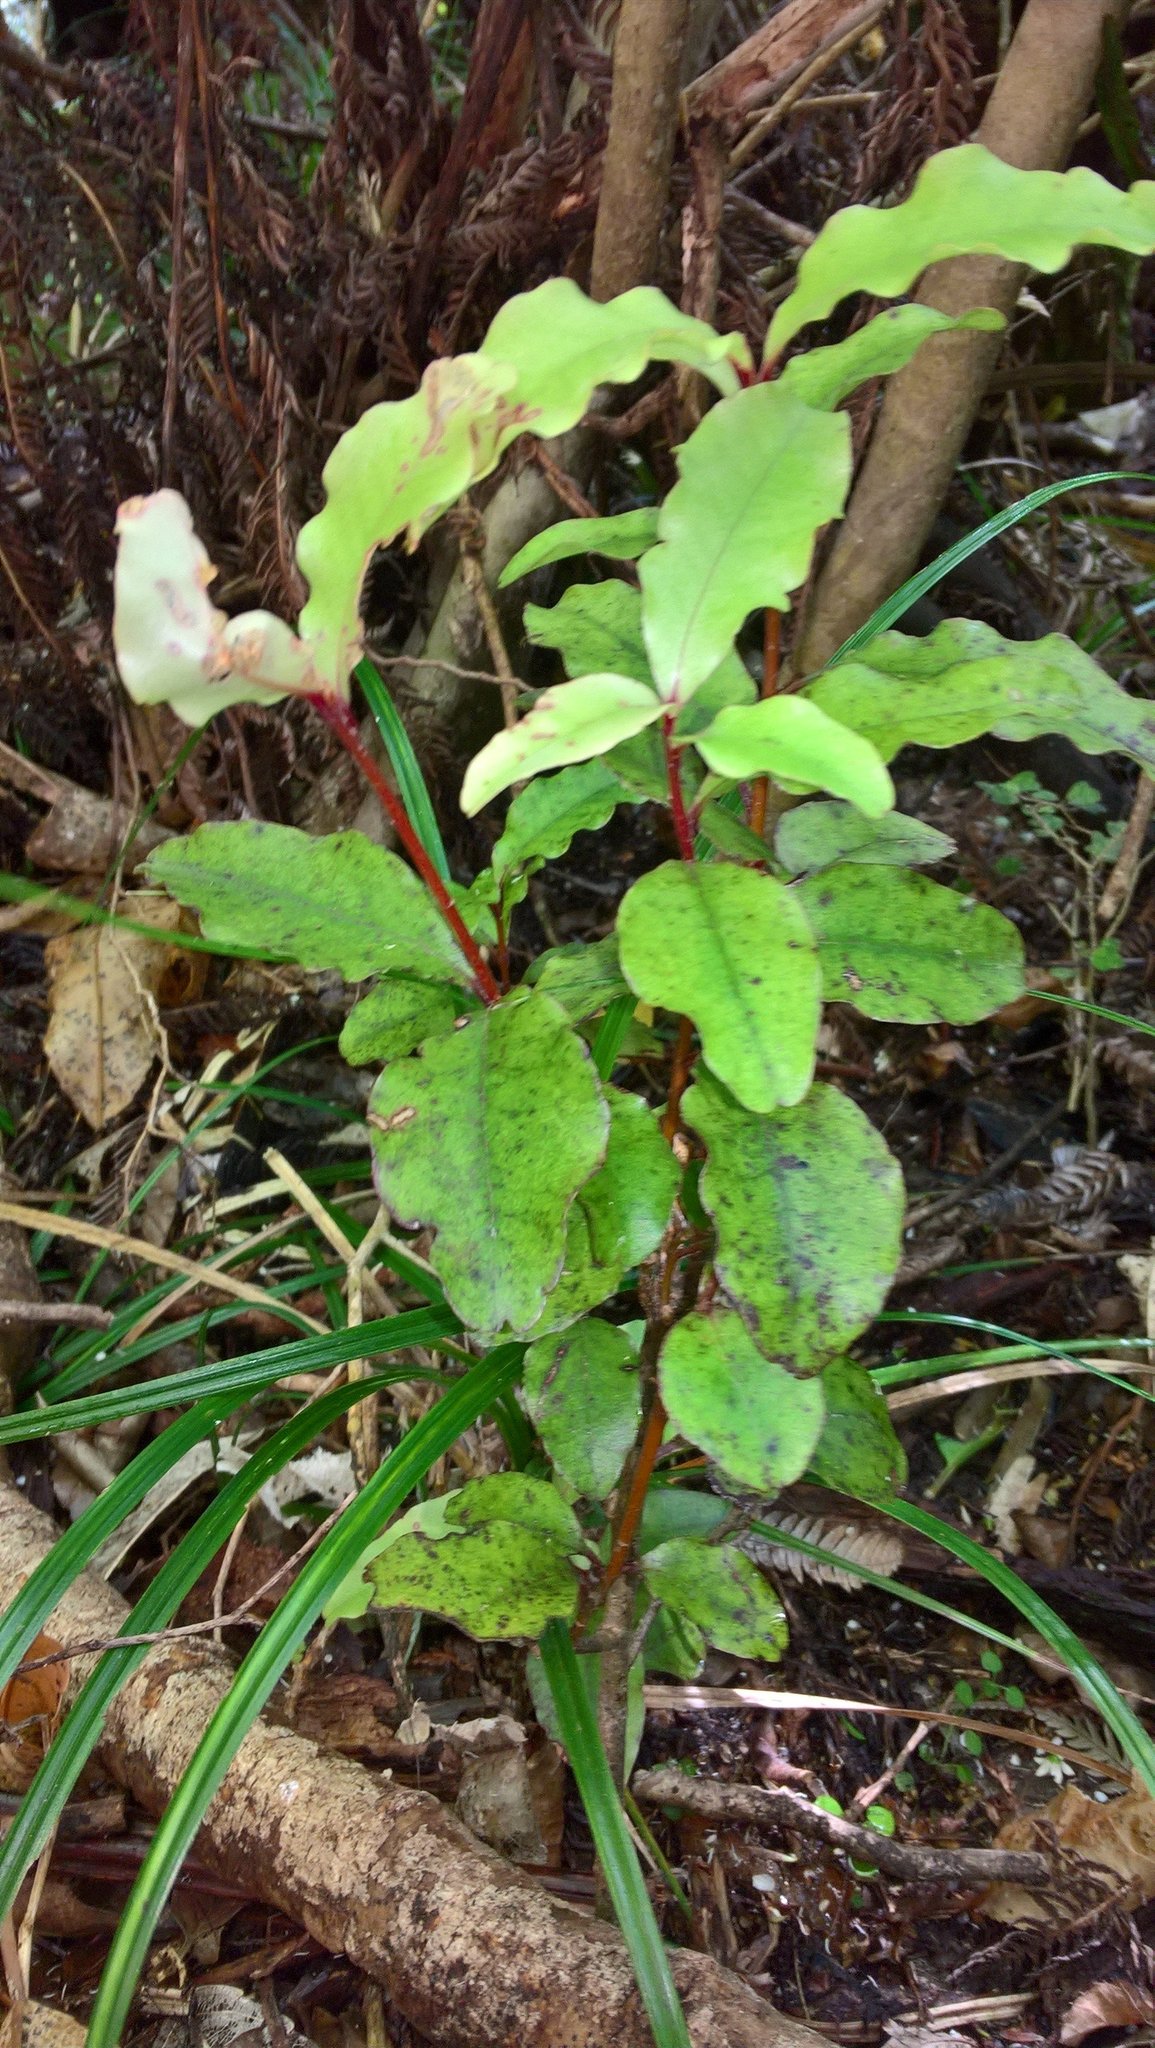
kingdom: Plantae
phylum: Tracheophyta
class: Magnoliopsida
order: Ericales
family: Primulaceae
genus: Myrsine
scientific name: Myrsine australis
